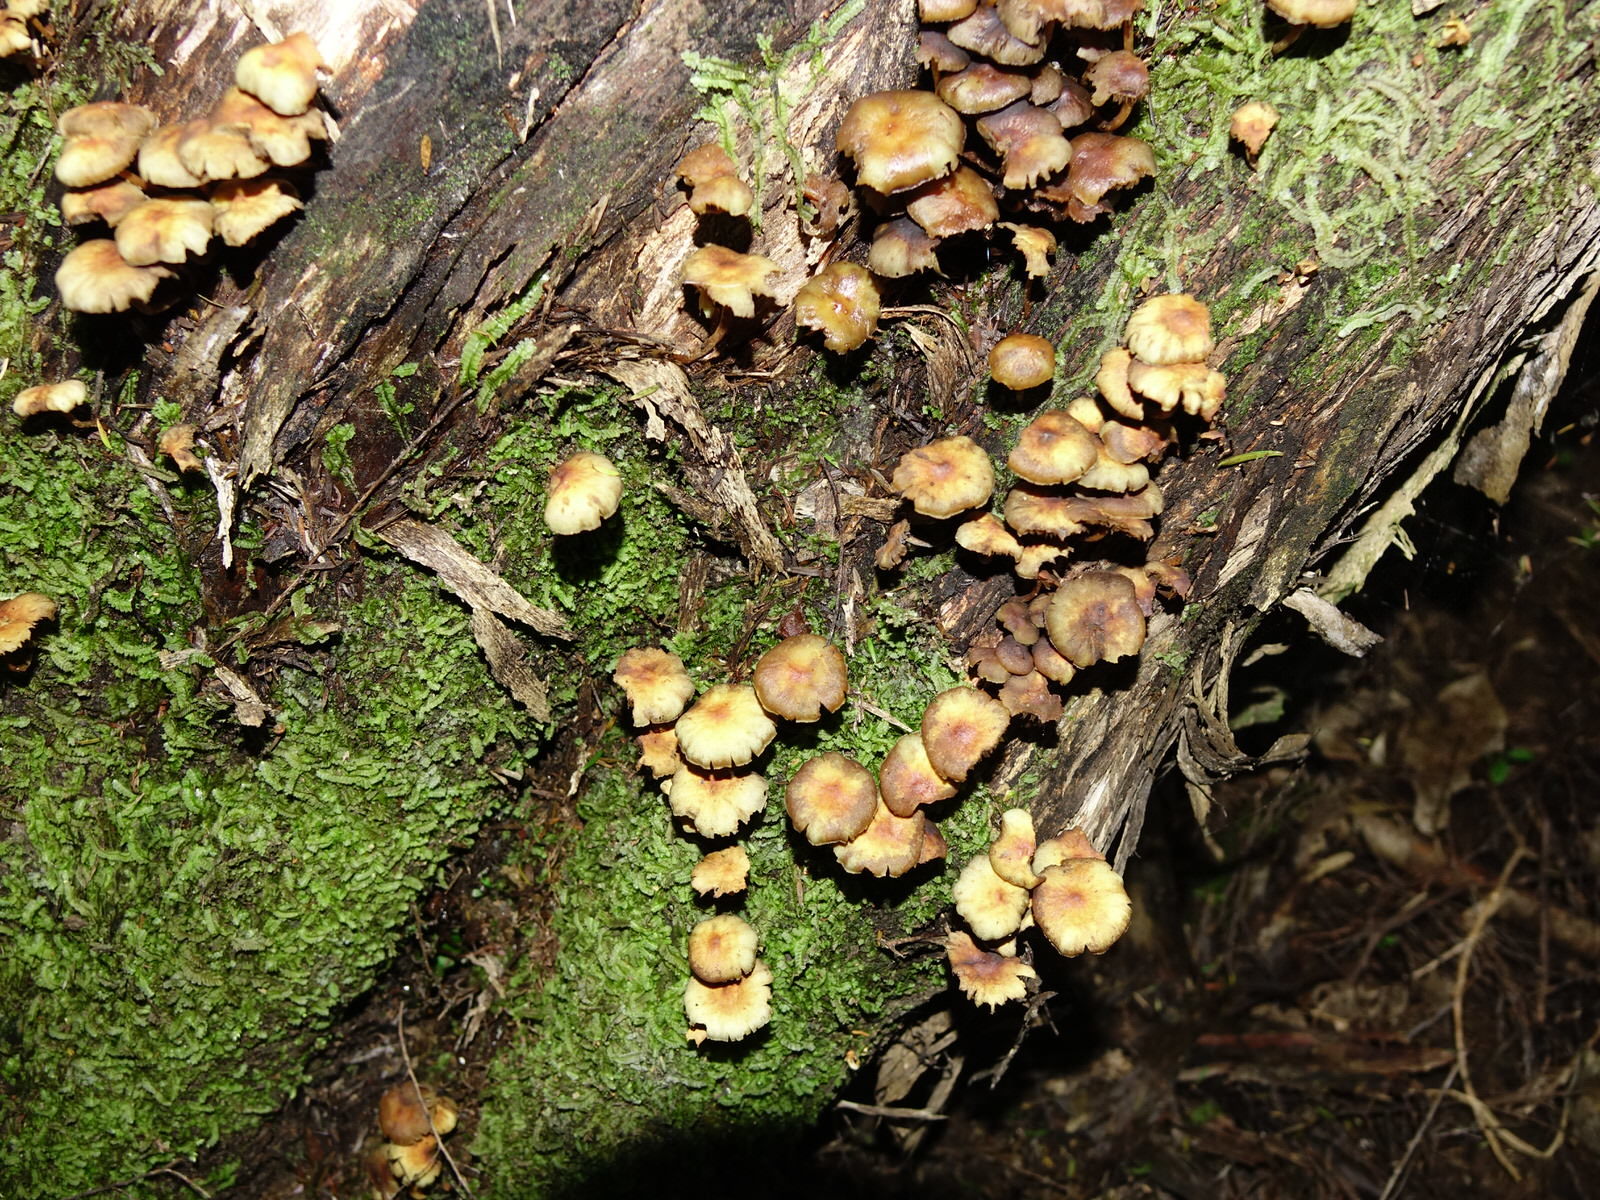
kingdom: Fungi
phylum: Basidiomycota
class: Agaricomycetes
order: Agaricales
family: Strophariaceae
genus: Hypholoma
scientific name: Hypholoma acutum
